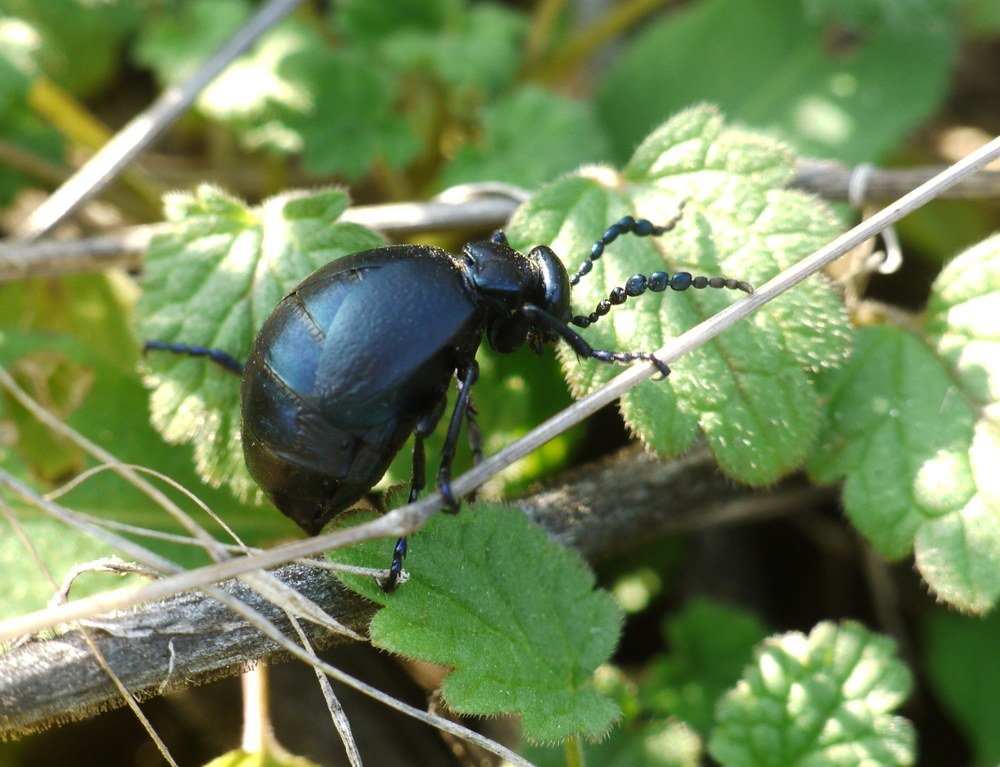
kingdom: Animalia
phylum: Arthropoda
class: Insecta
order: Coleoptera
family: Meloidae
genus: Meloe
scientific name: Meloe autumnalis
